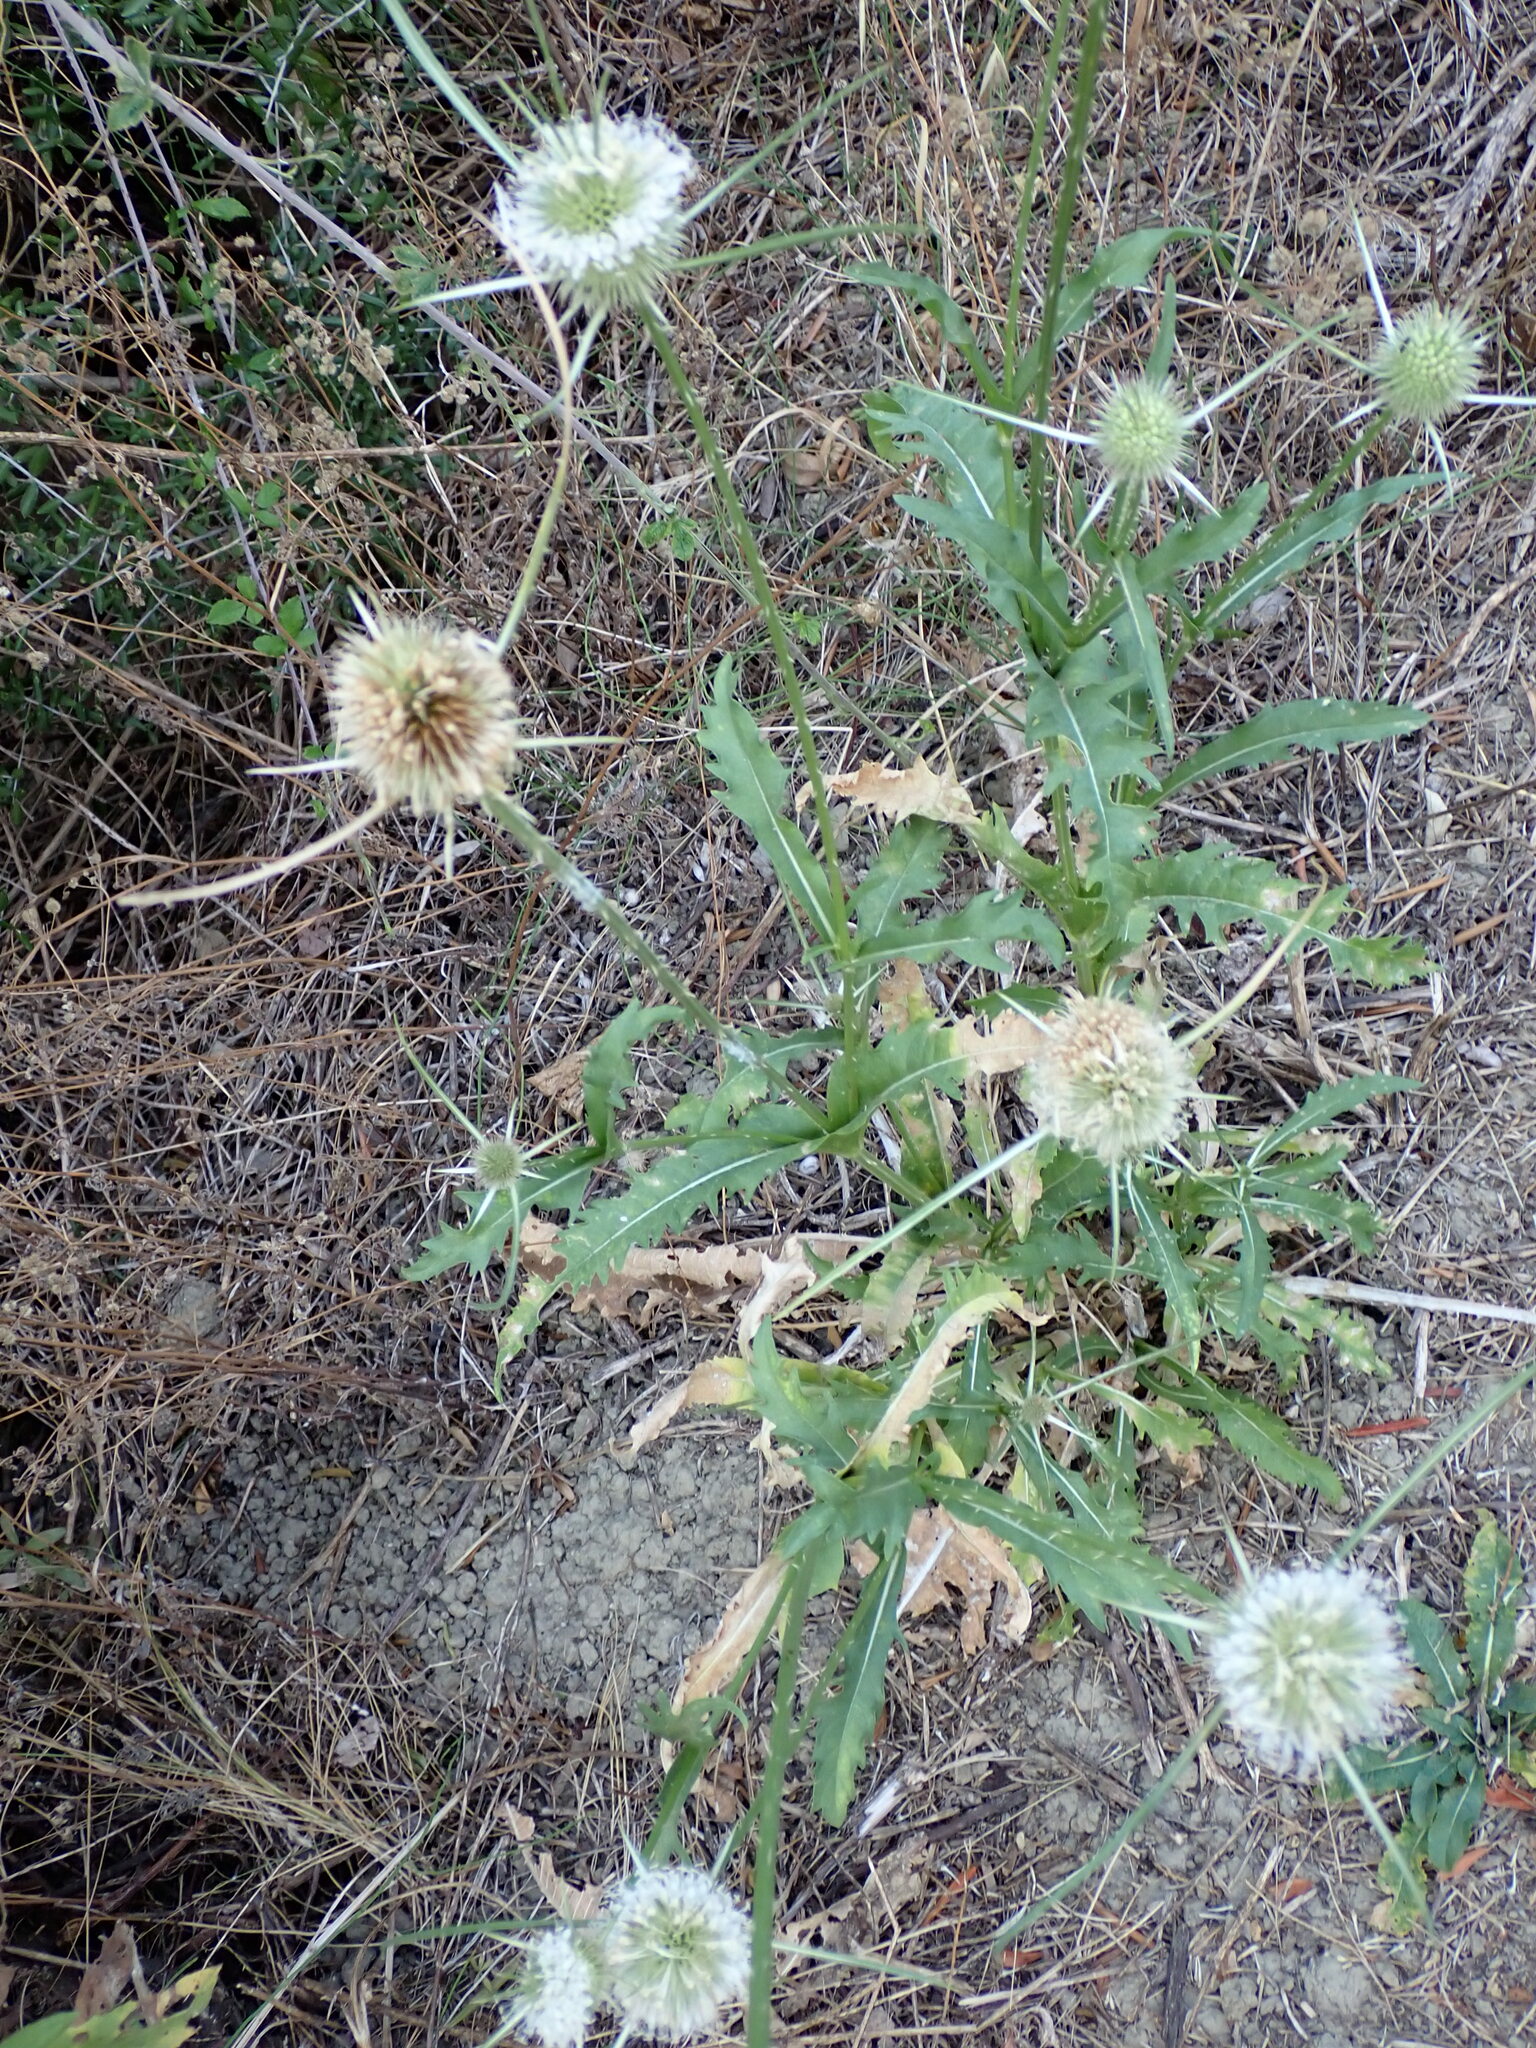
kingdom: Plantae
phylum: Tracheophyta
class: Magnoliopsida
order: Dipsacales
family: Caprifoliaceae
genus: Dipsacus
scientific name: Dipsacus comosus
